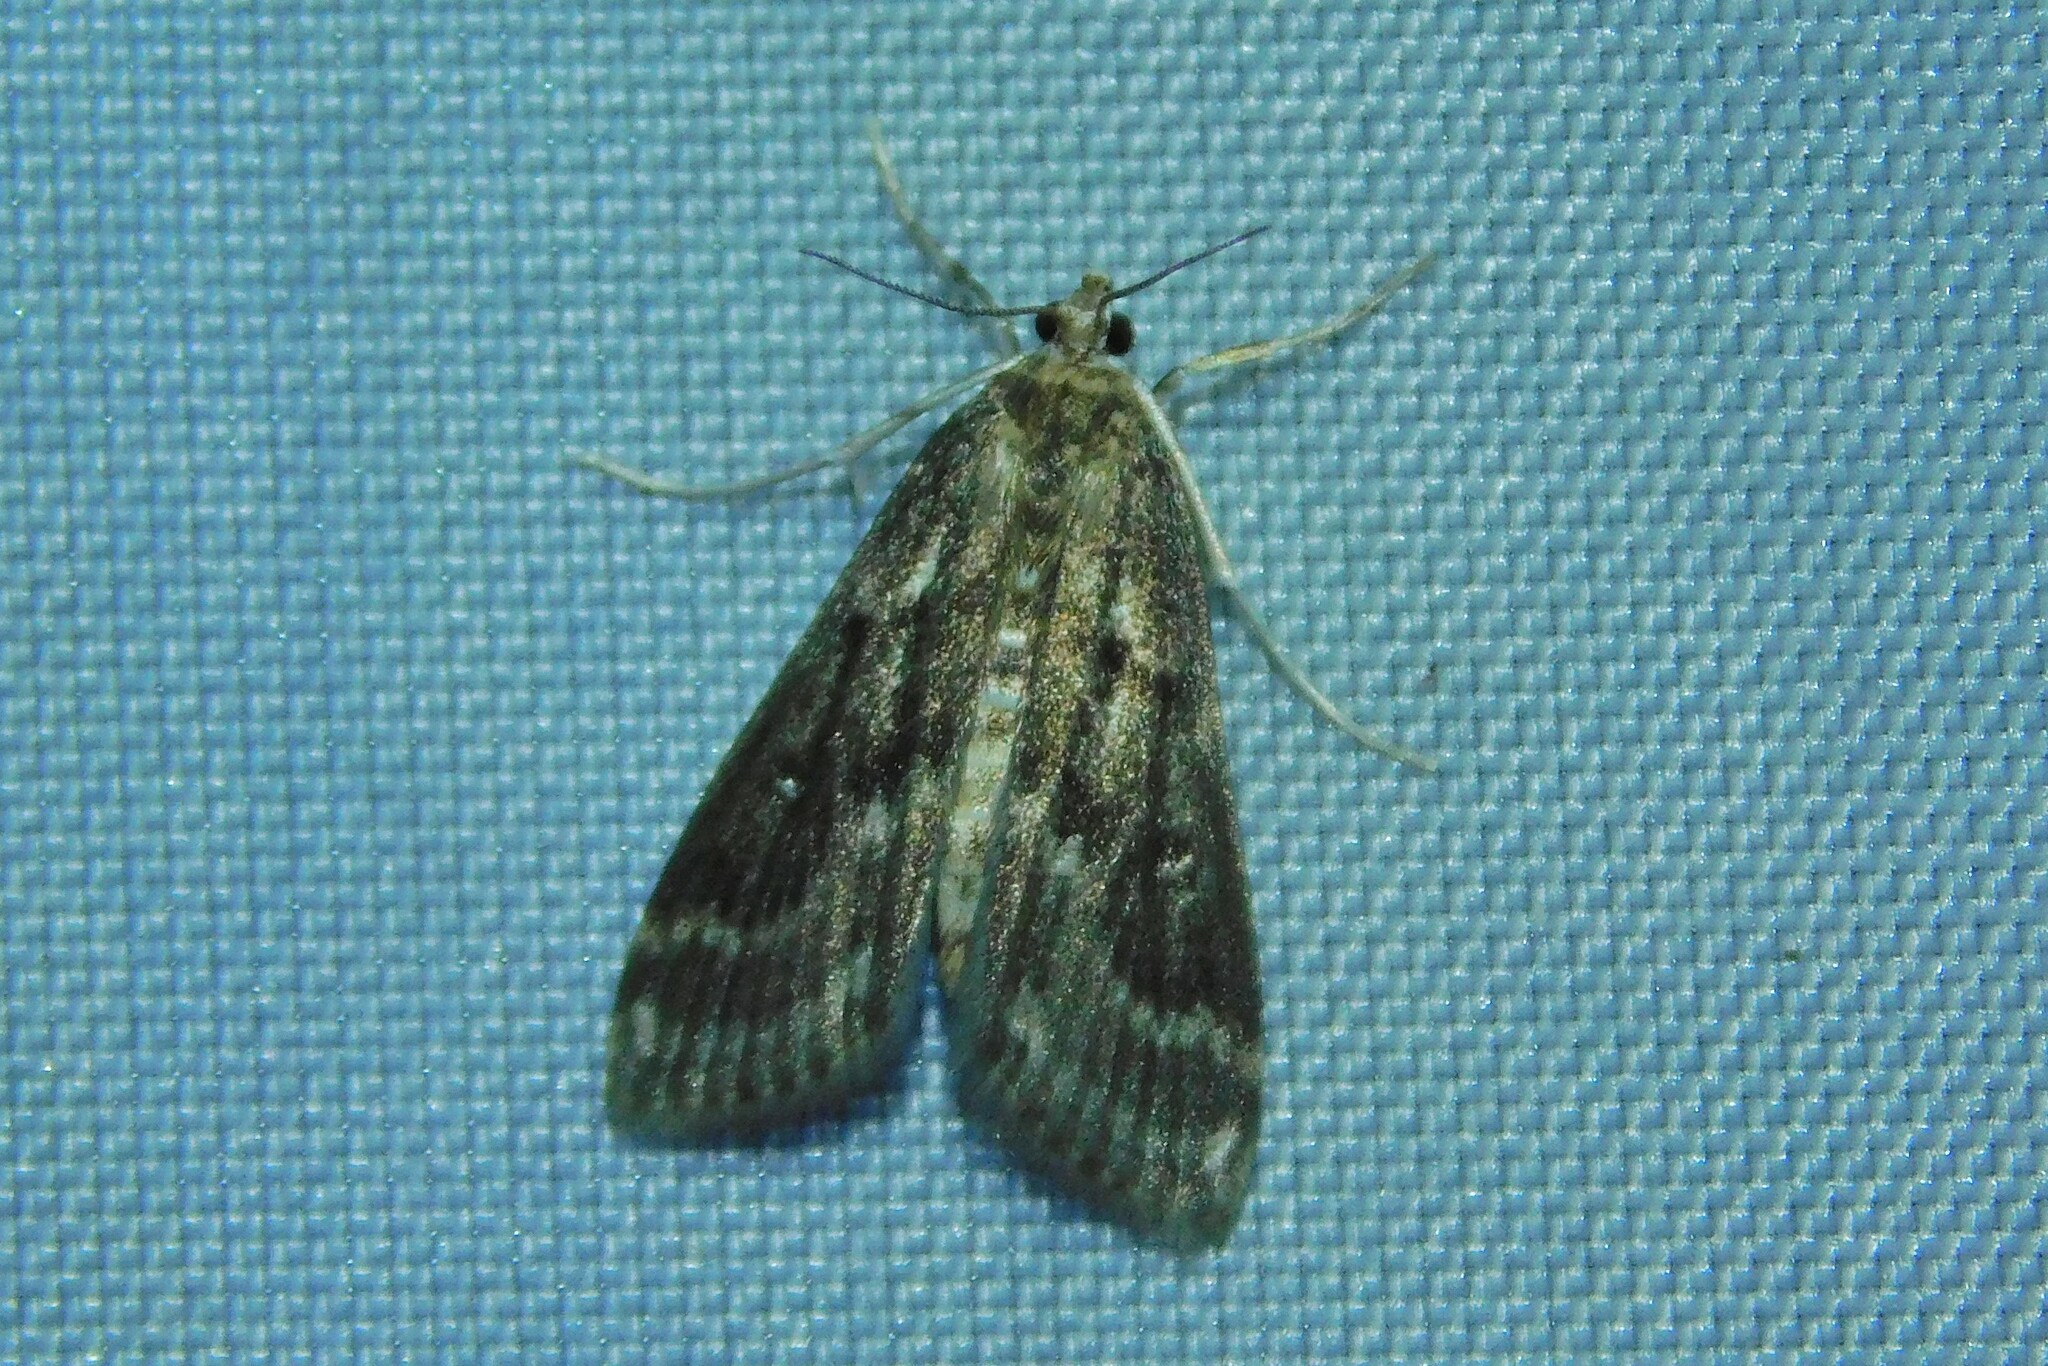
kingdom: Animalia
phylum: Arthropoda
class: Insecta
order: Lepidoptera
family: Crambidae
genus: Parapoynx
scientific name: Parapoynx stratiotata
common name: Ringed china-mark
